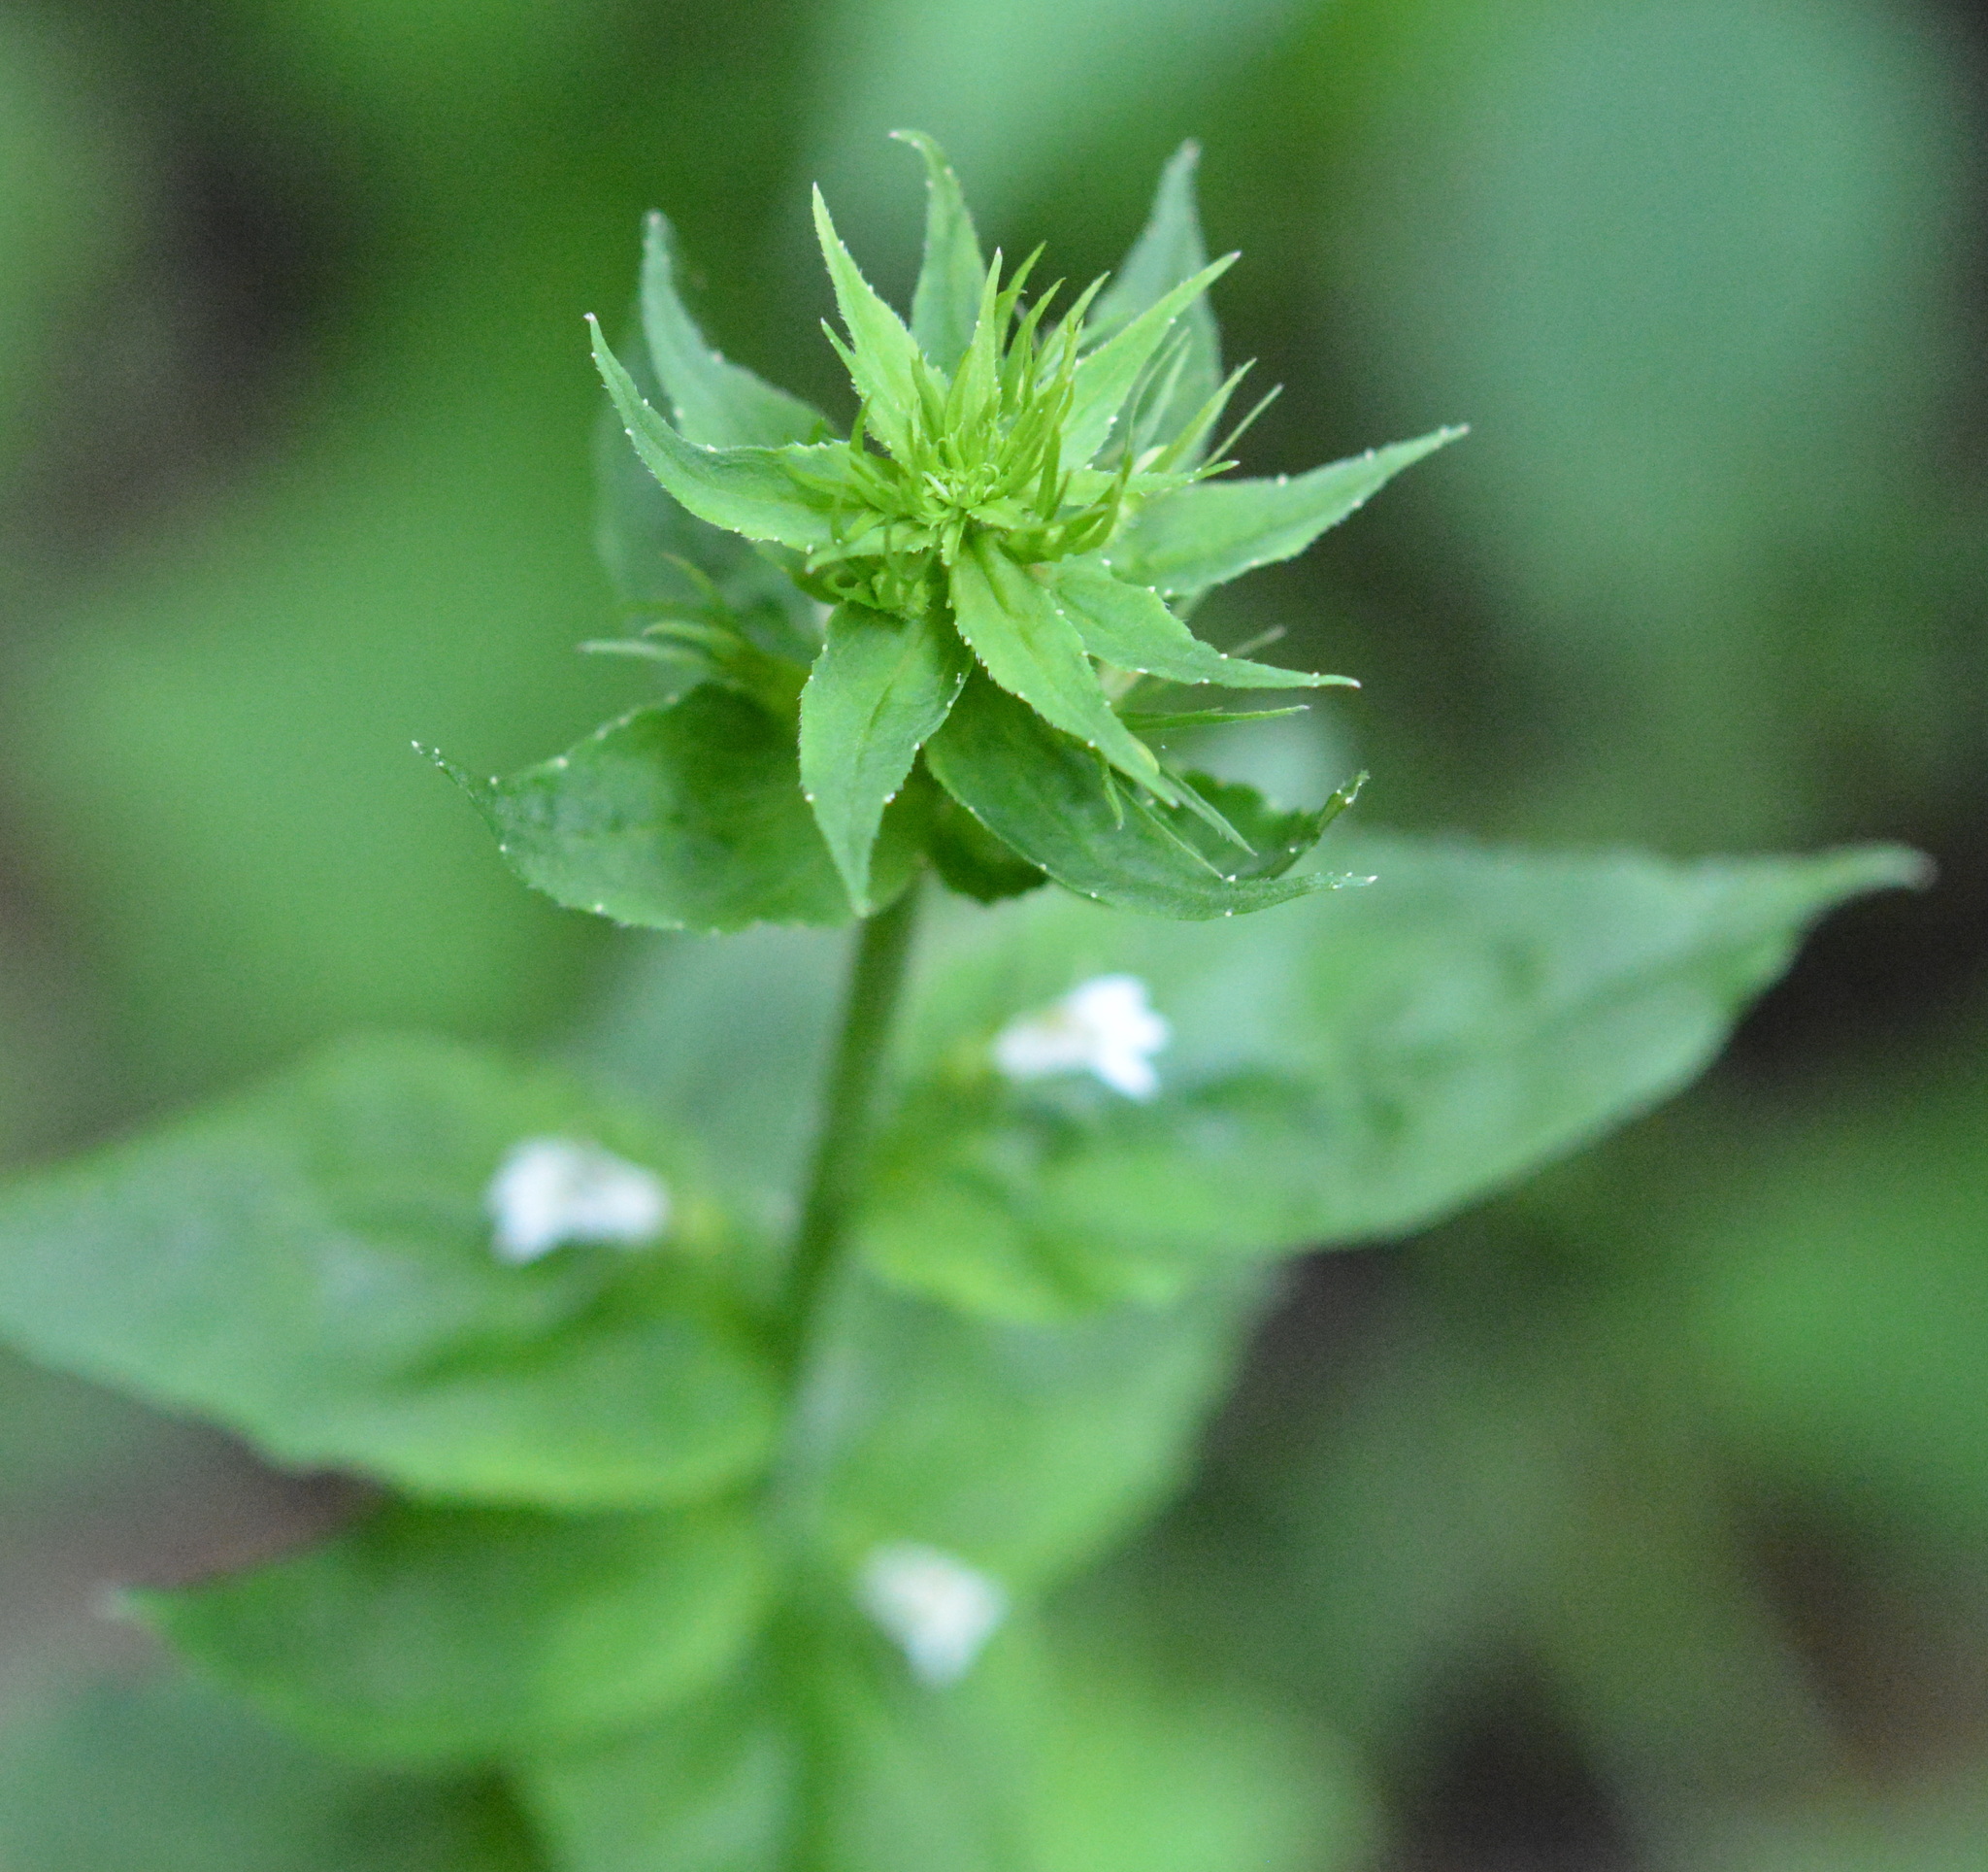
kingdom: Plantae
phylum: Tracheophyta
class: Magnoliopsida
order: Asterales
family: Campanulaceae
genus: Lobelia
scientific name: Lobelia inflata
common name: Indian tobacco
